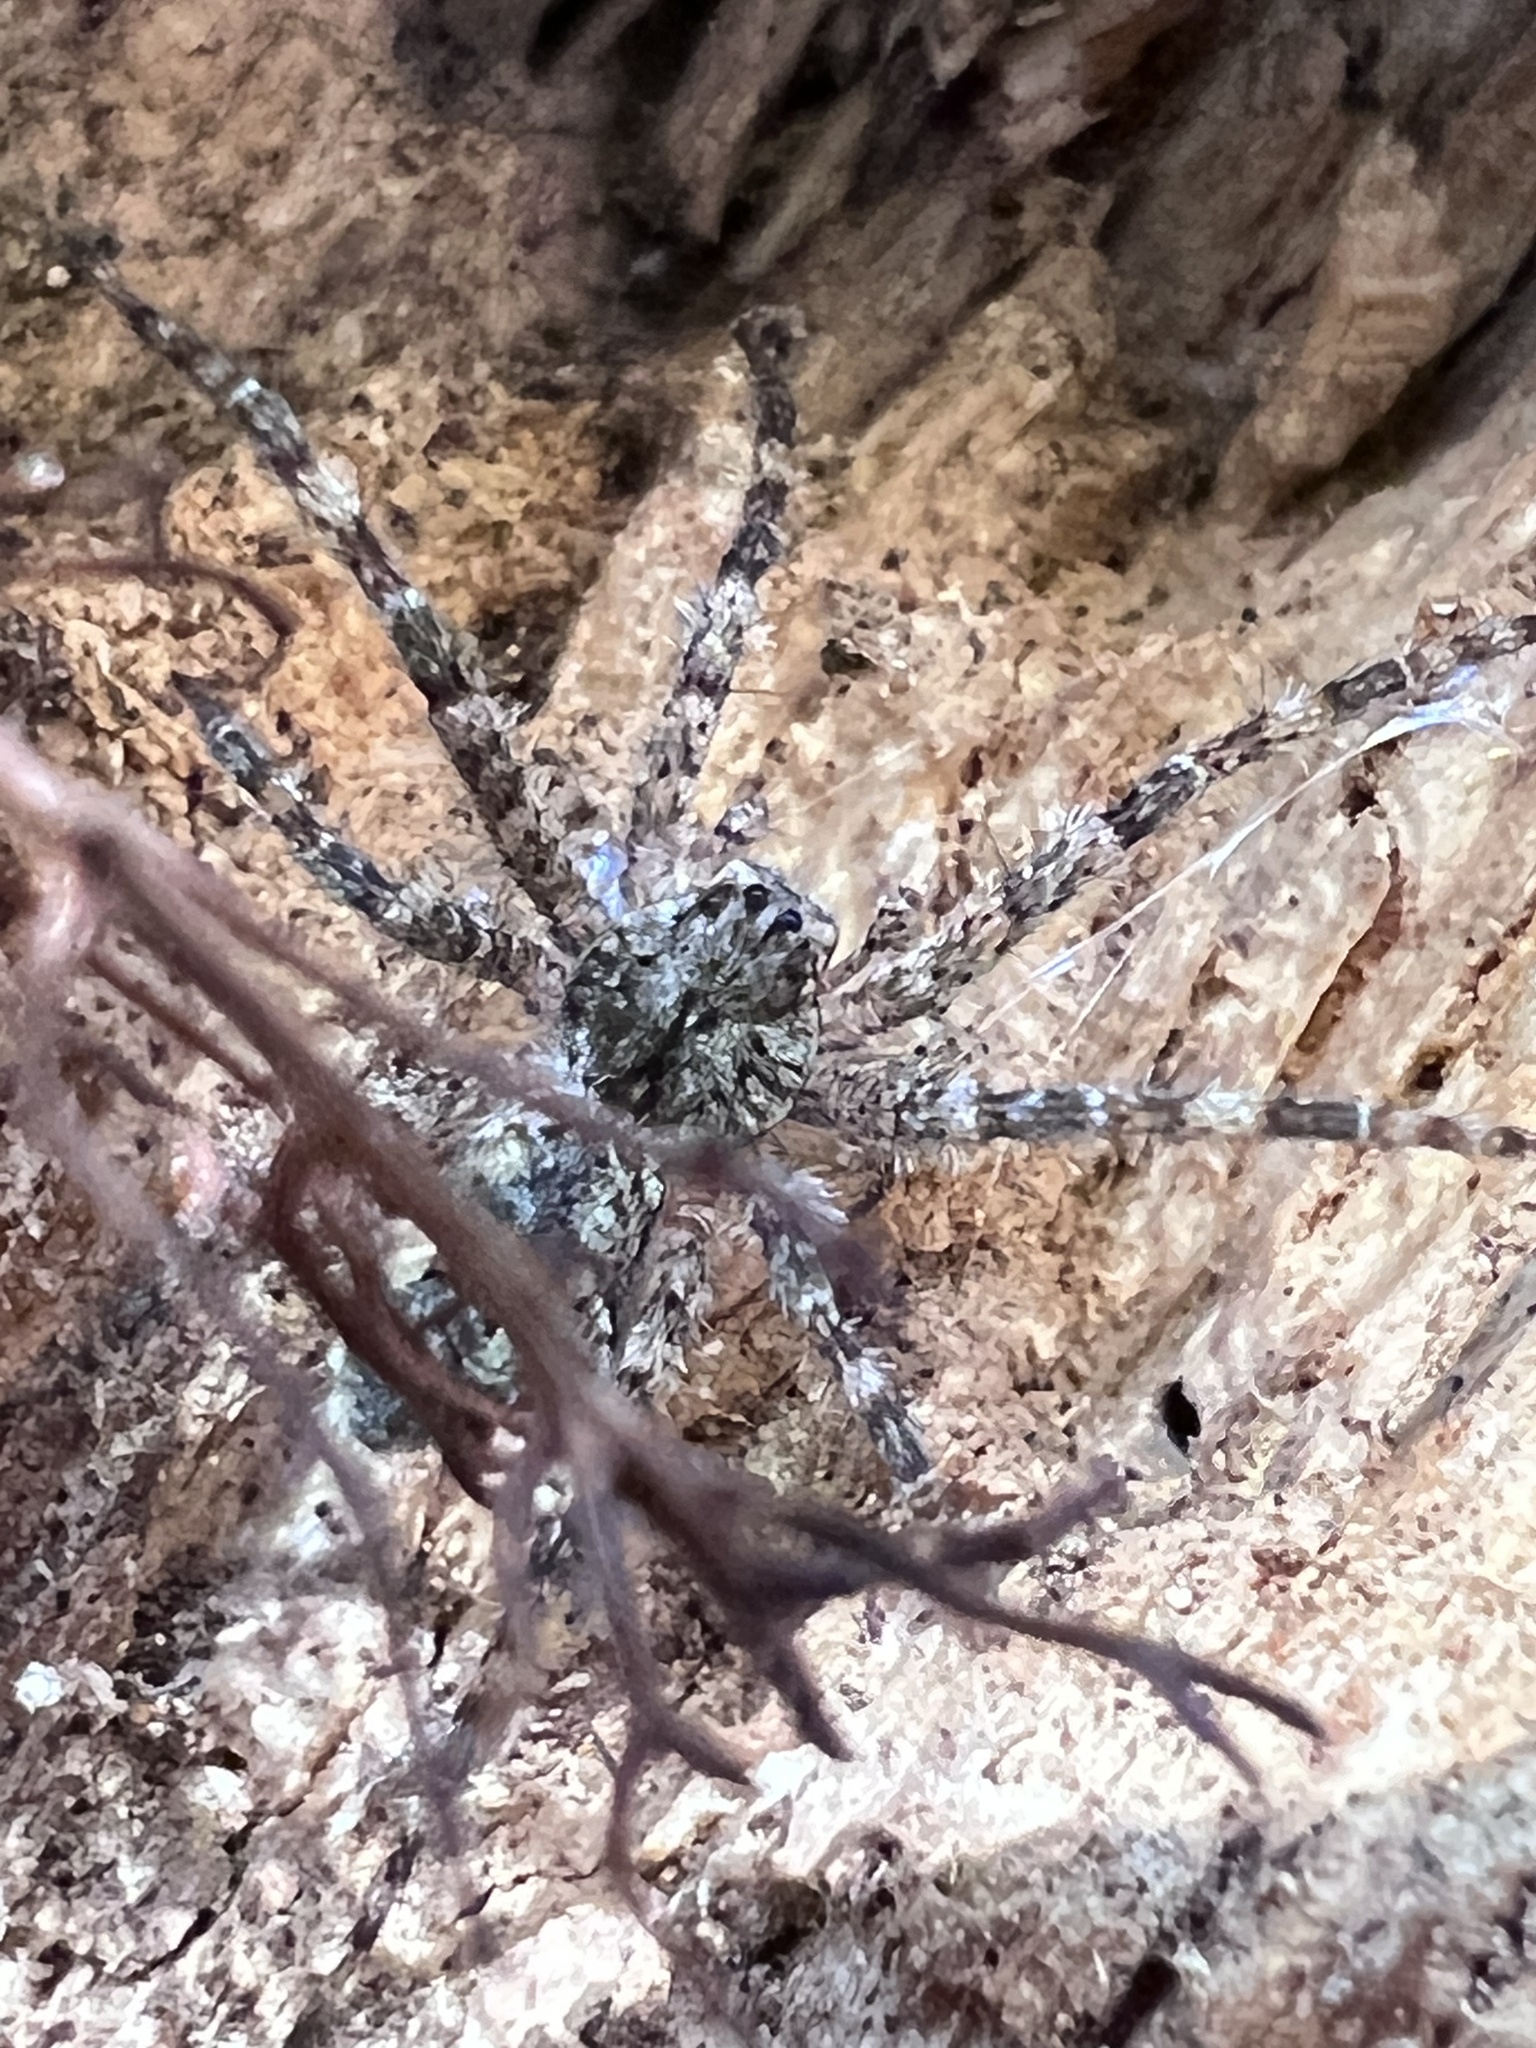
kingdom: Animalia
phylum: Arthropoda
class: Arachnida
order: Araneae
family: Pisauridae
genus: Dolomedes
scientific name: Dolomedes albineus
